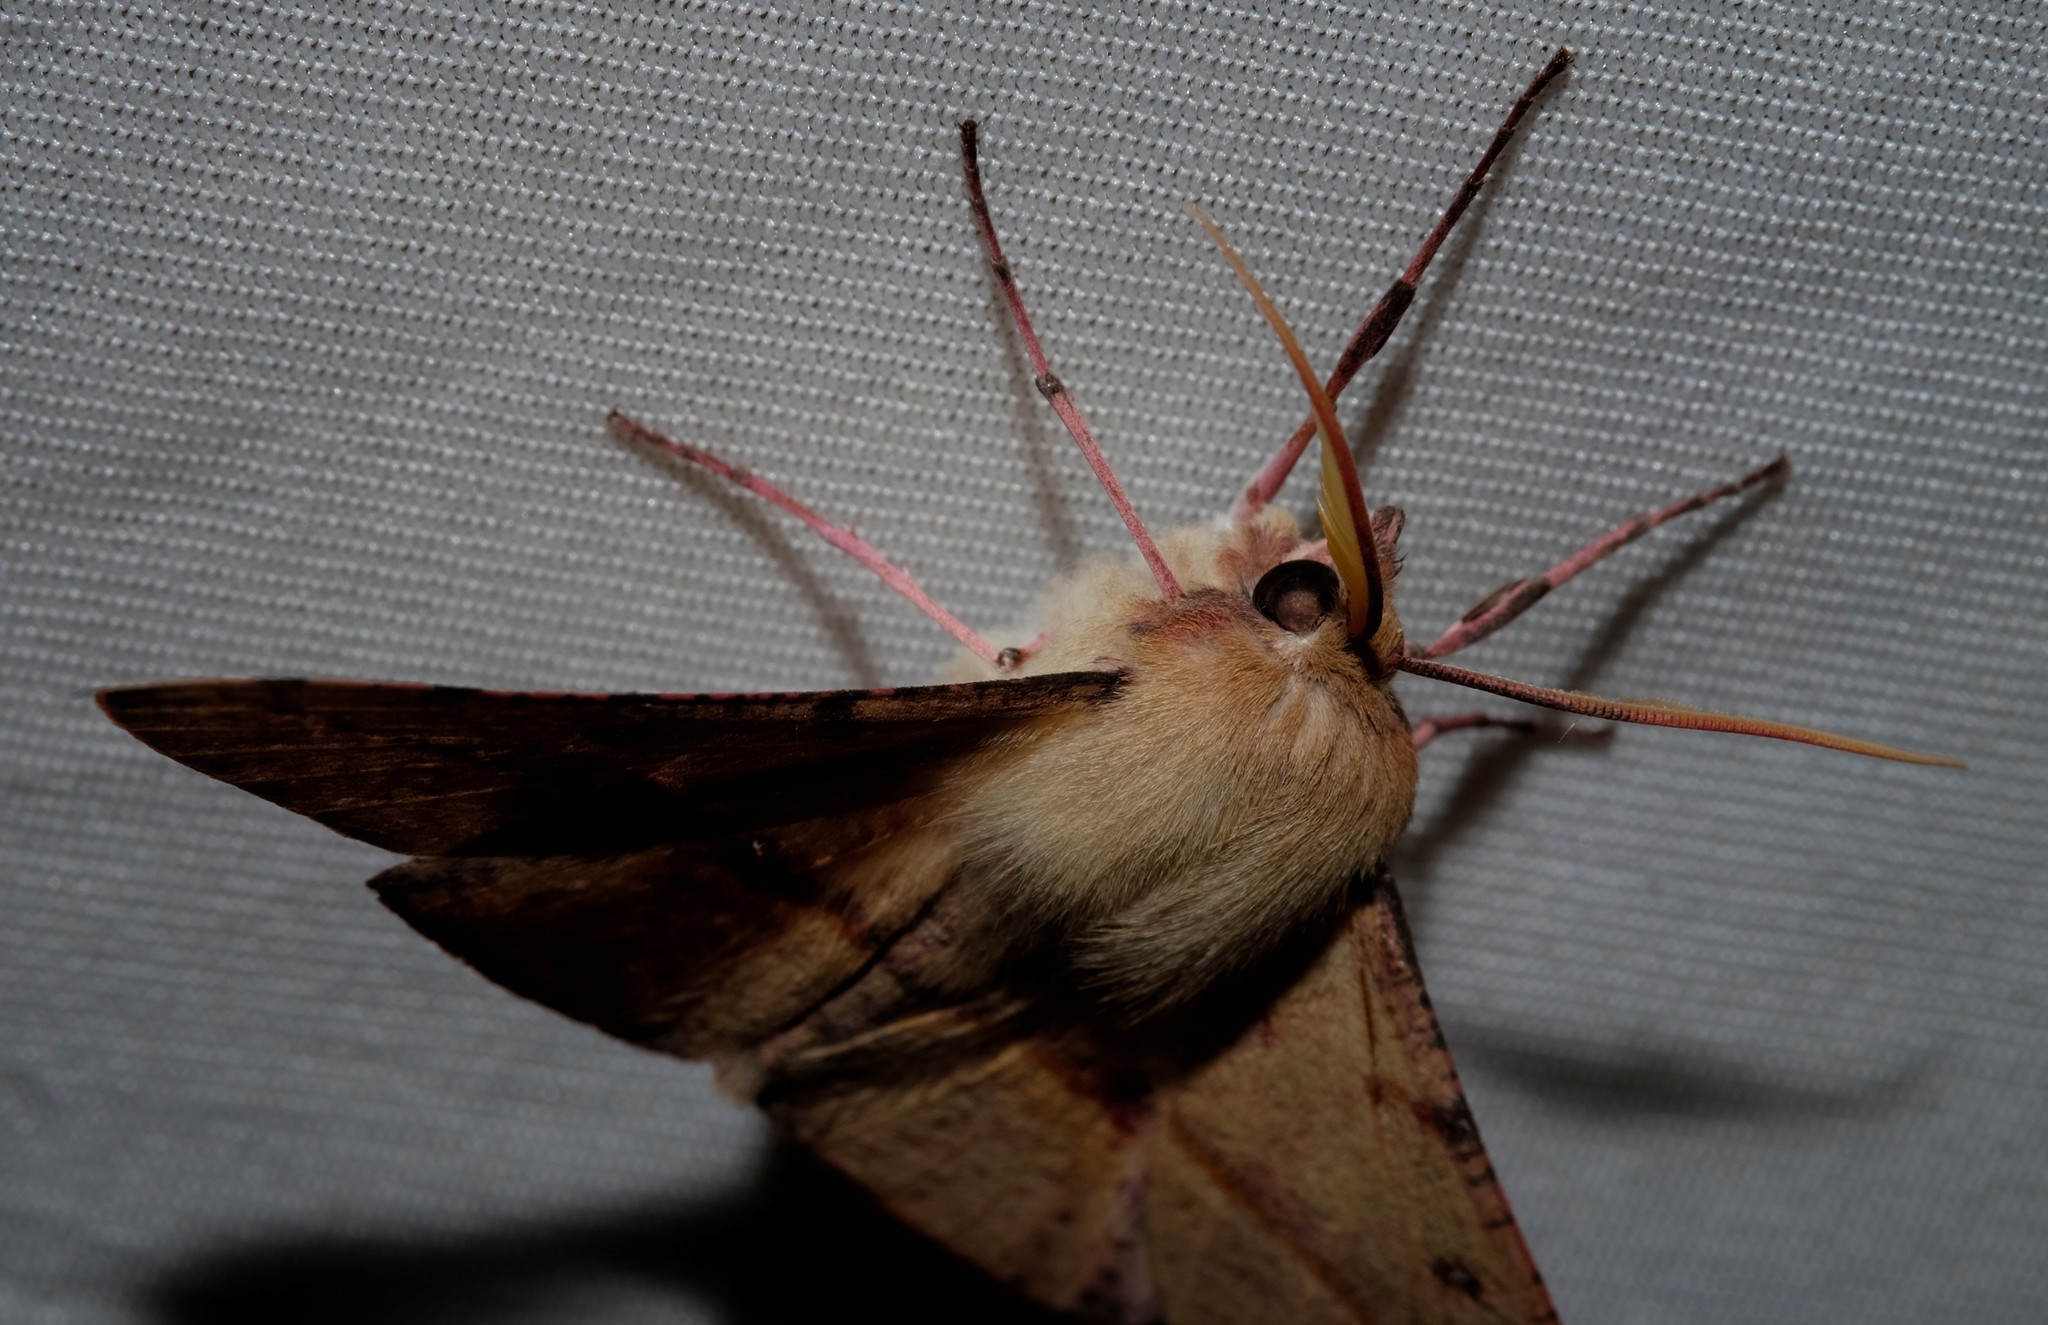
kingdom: Animalia
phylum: Arthropoda
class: Insecta
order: Lepidoptera
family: Geometridae
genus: Oenochroma
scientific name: Oenochroma vinaria
